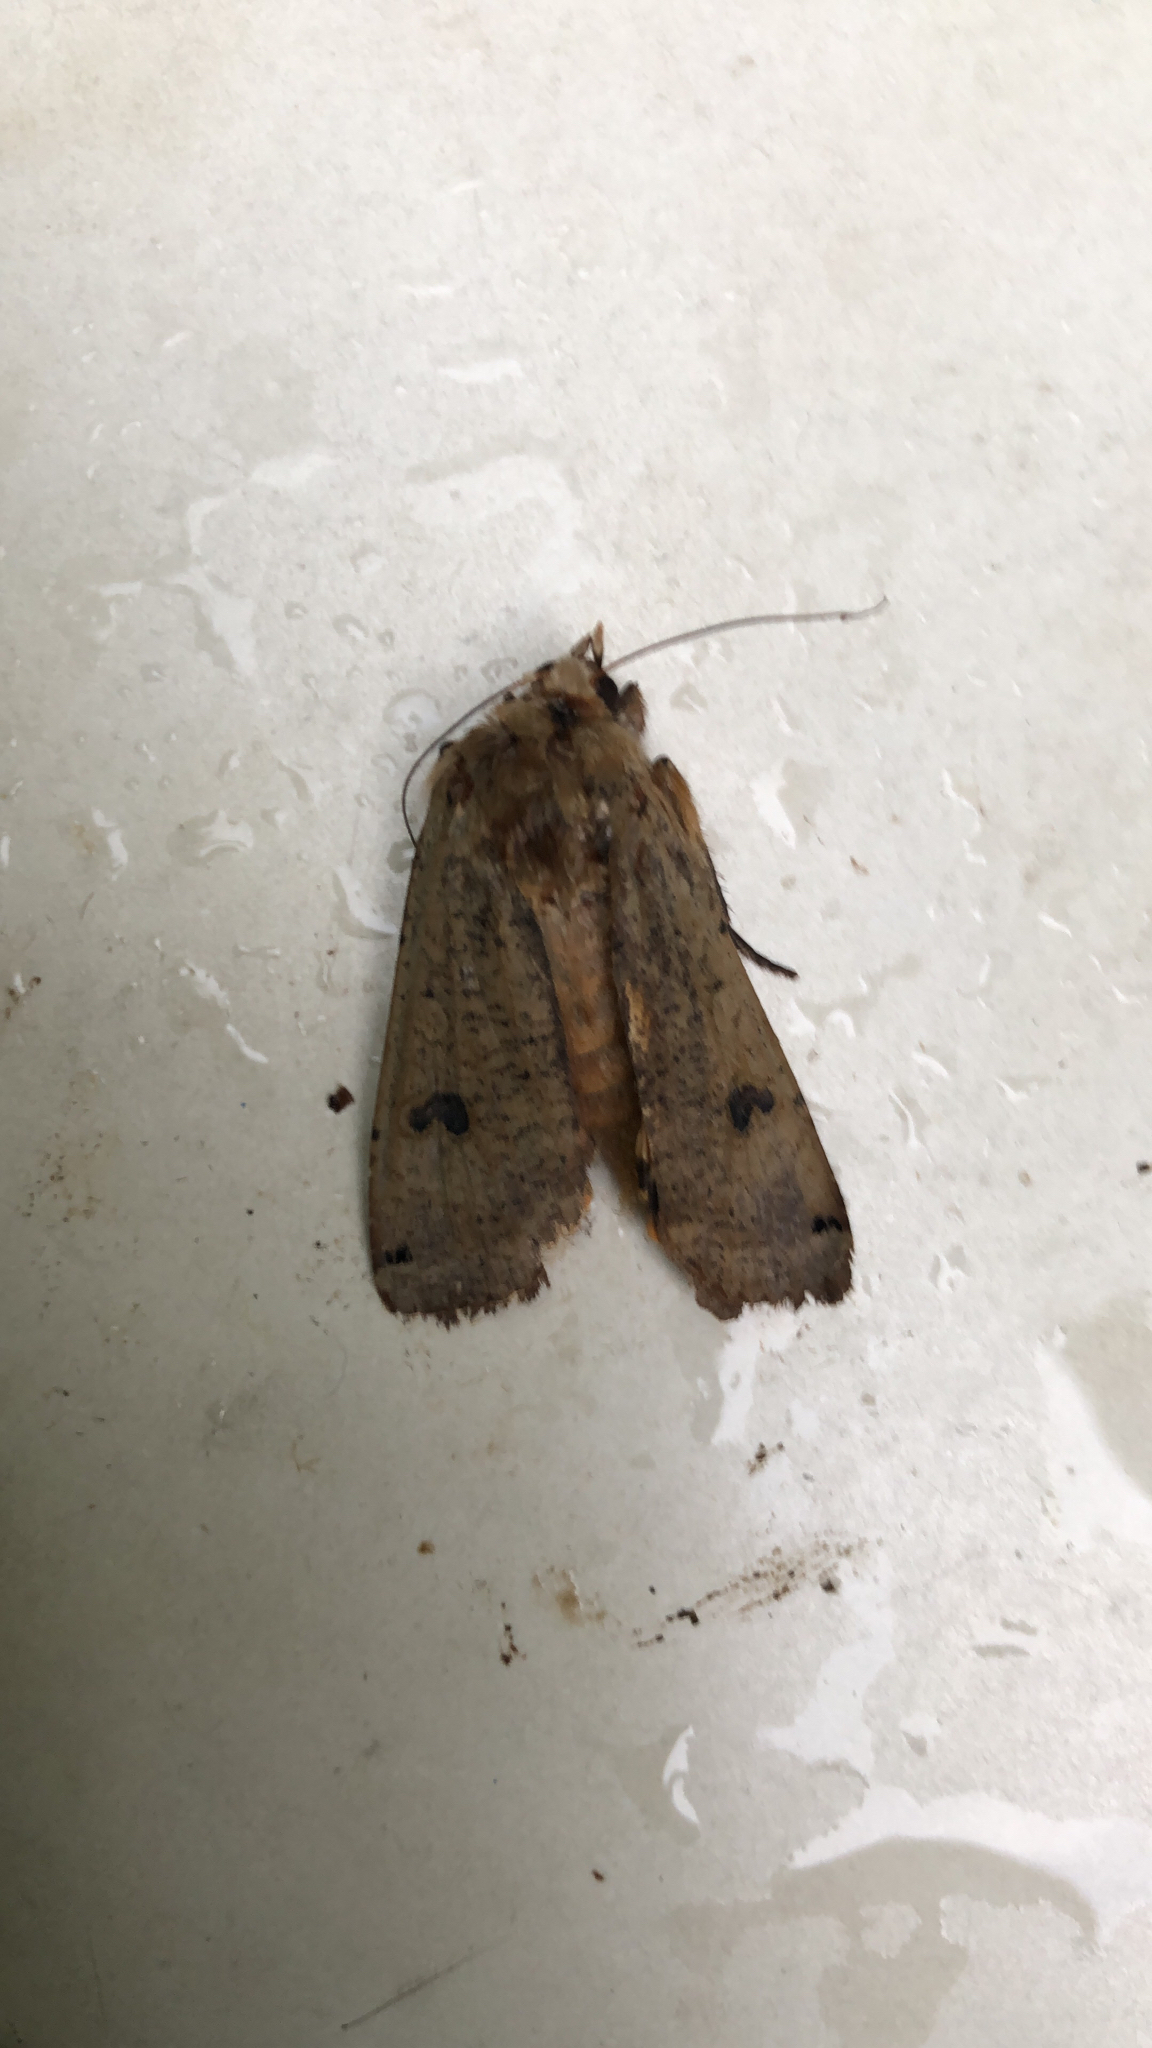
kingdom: Animalia
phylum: Arthropoda
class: Insecta
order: Lepidoptera
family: Noctuidae
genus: Noctua
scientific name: Noctua pronuba
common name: Large yellow underwing
